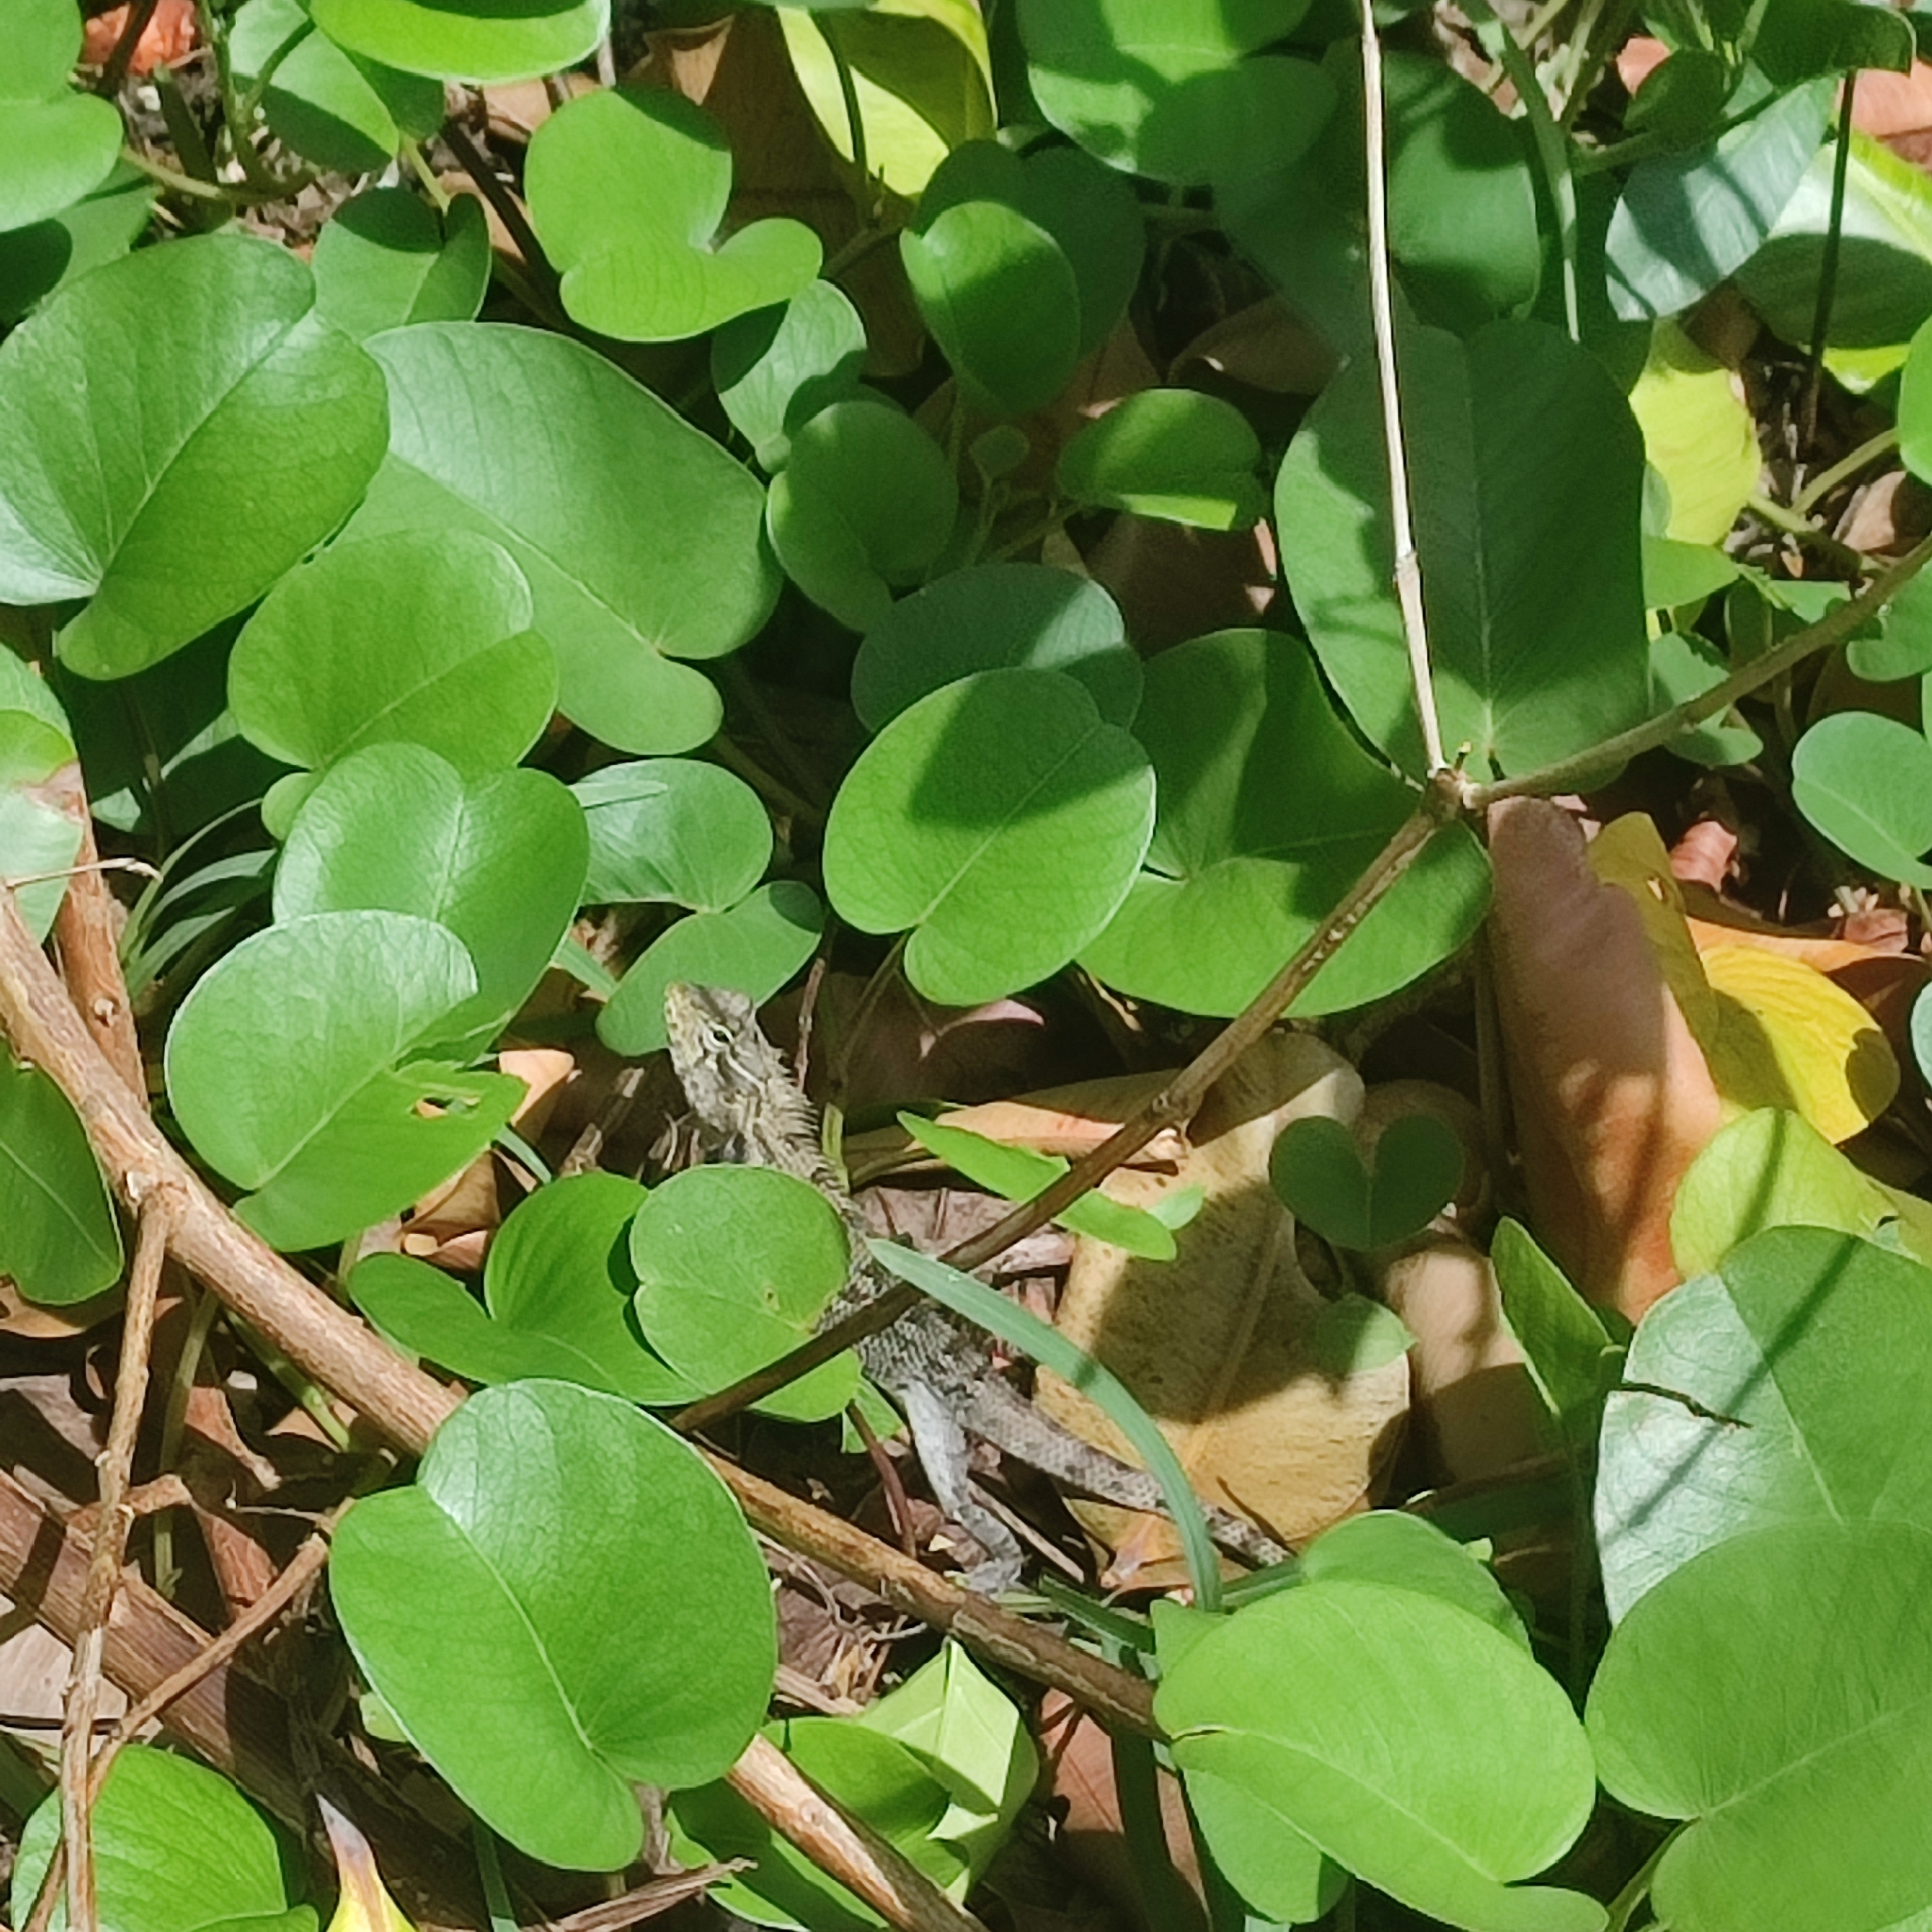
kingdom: Plantae
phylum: Tracheophyta
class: Magnoliopsida
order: Solanales
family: Convolvulaceae
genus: Ipomoea
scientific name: Ipomoea pes-caprae
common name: Beach morning glory
